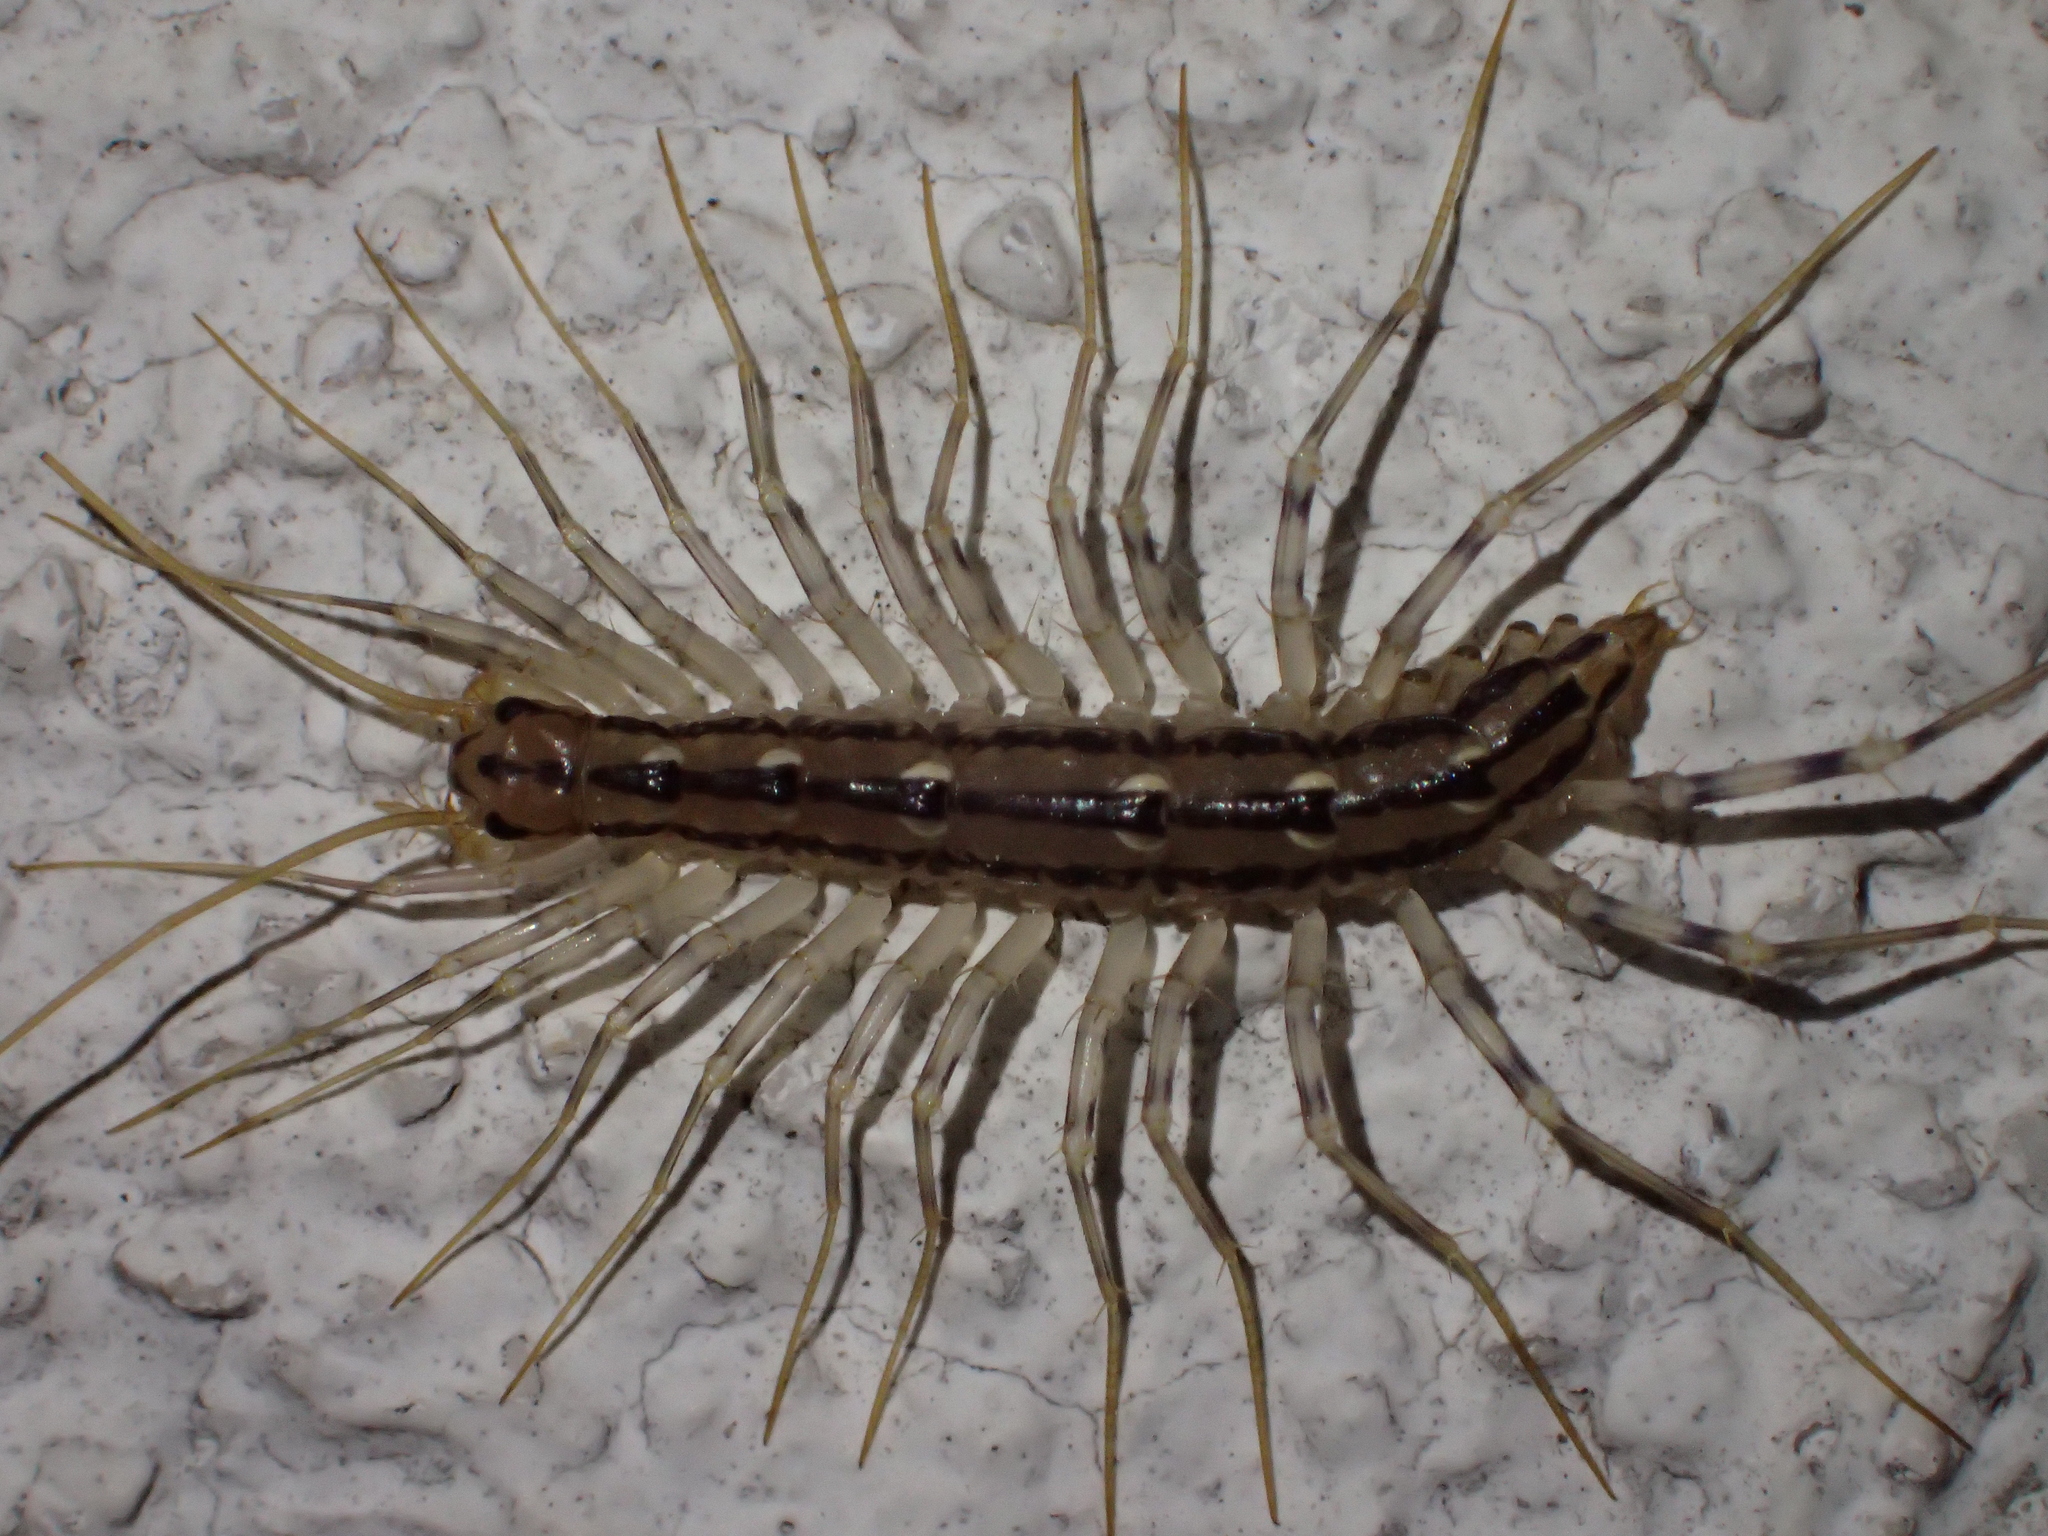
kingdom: Animalia
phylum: Arthropoda
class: Chilopoda
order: Scutigeromorpha
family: Scutigeridae
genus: Scutigera
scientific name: Scutigera coleoptrata
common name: House centipede
